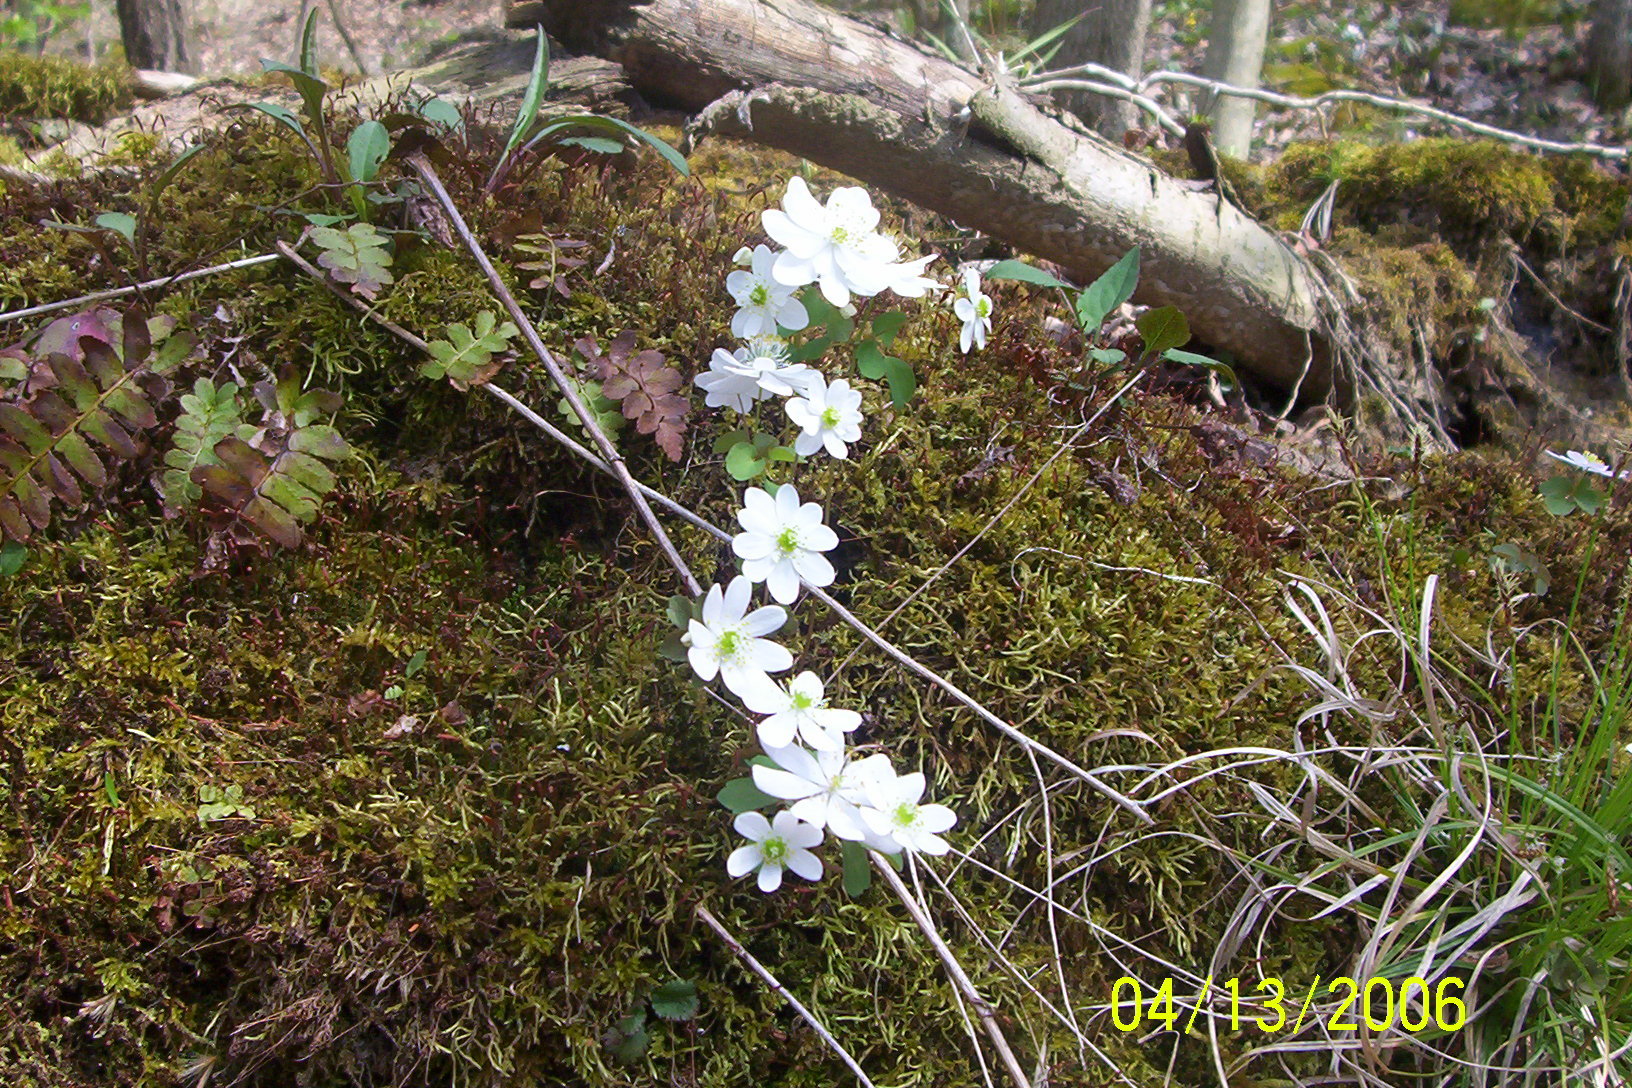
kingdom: Plantae
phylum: Tracheophyta
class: Magnoliopsida
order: Ranunculales
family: Ranunculaceae
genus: Thalictrum
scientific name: Thalictrum thalictroides
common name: Rue-anemone
